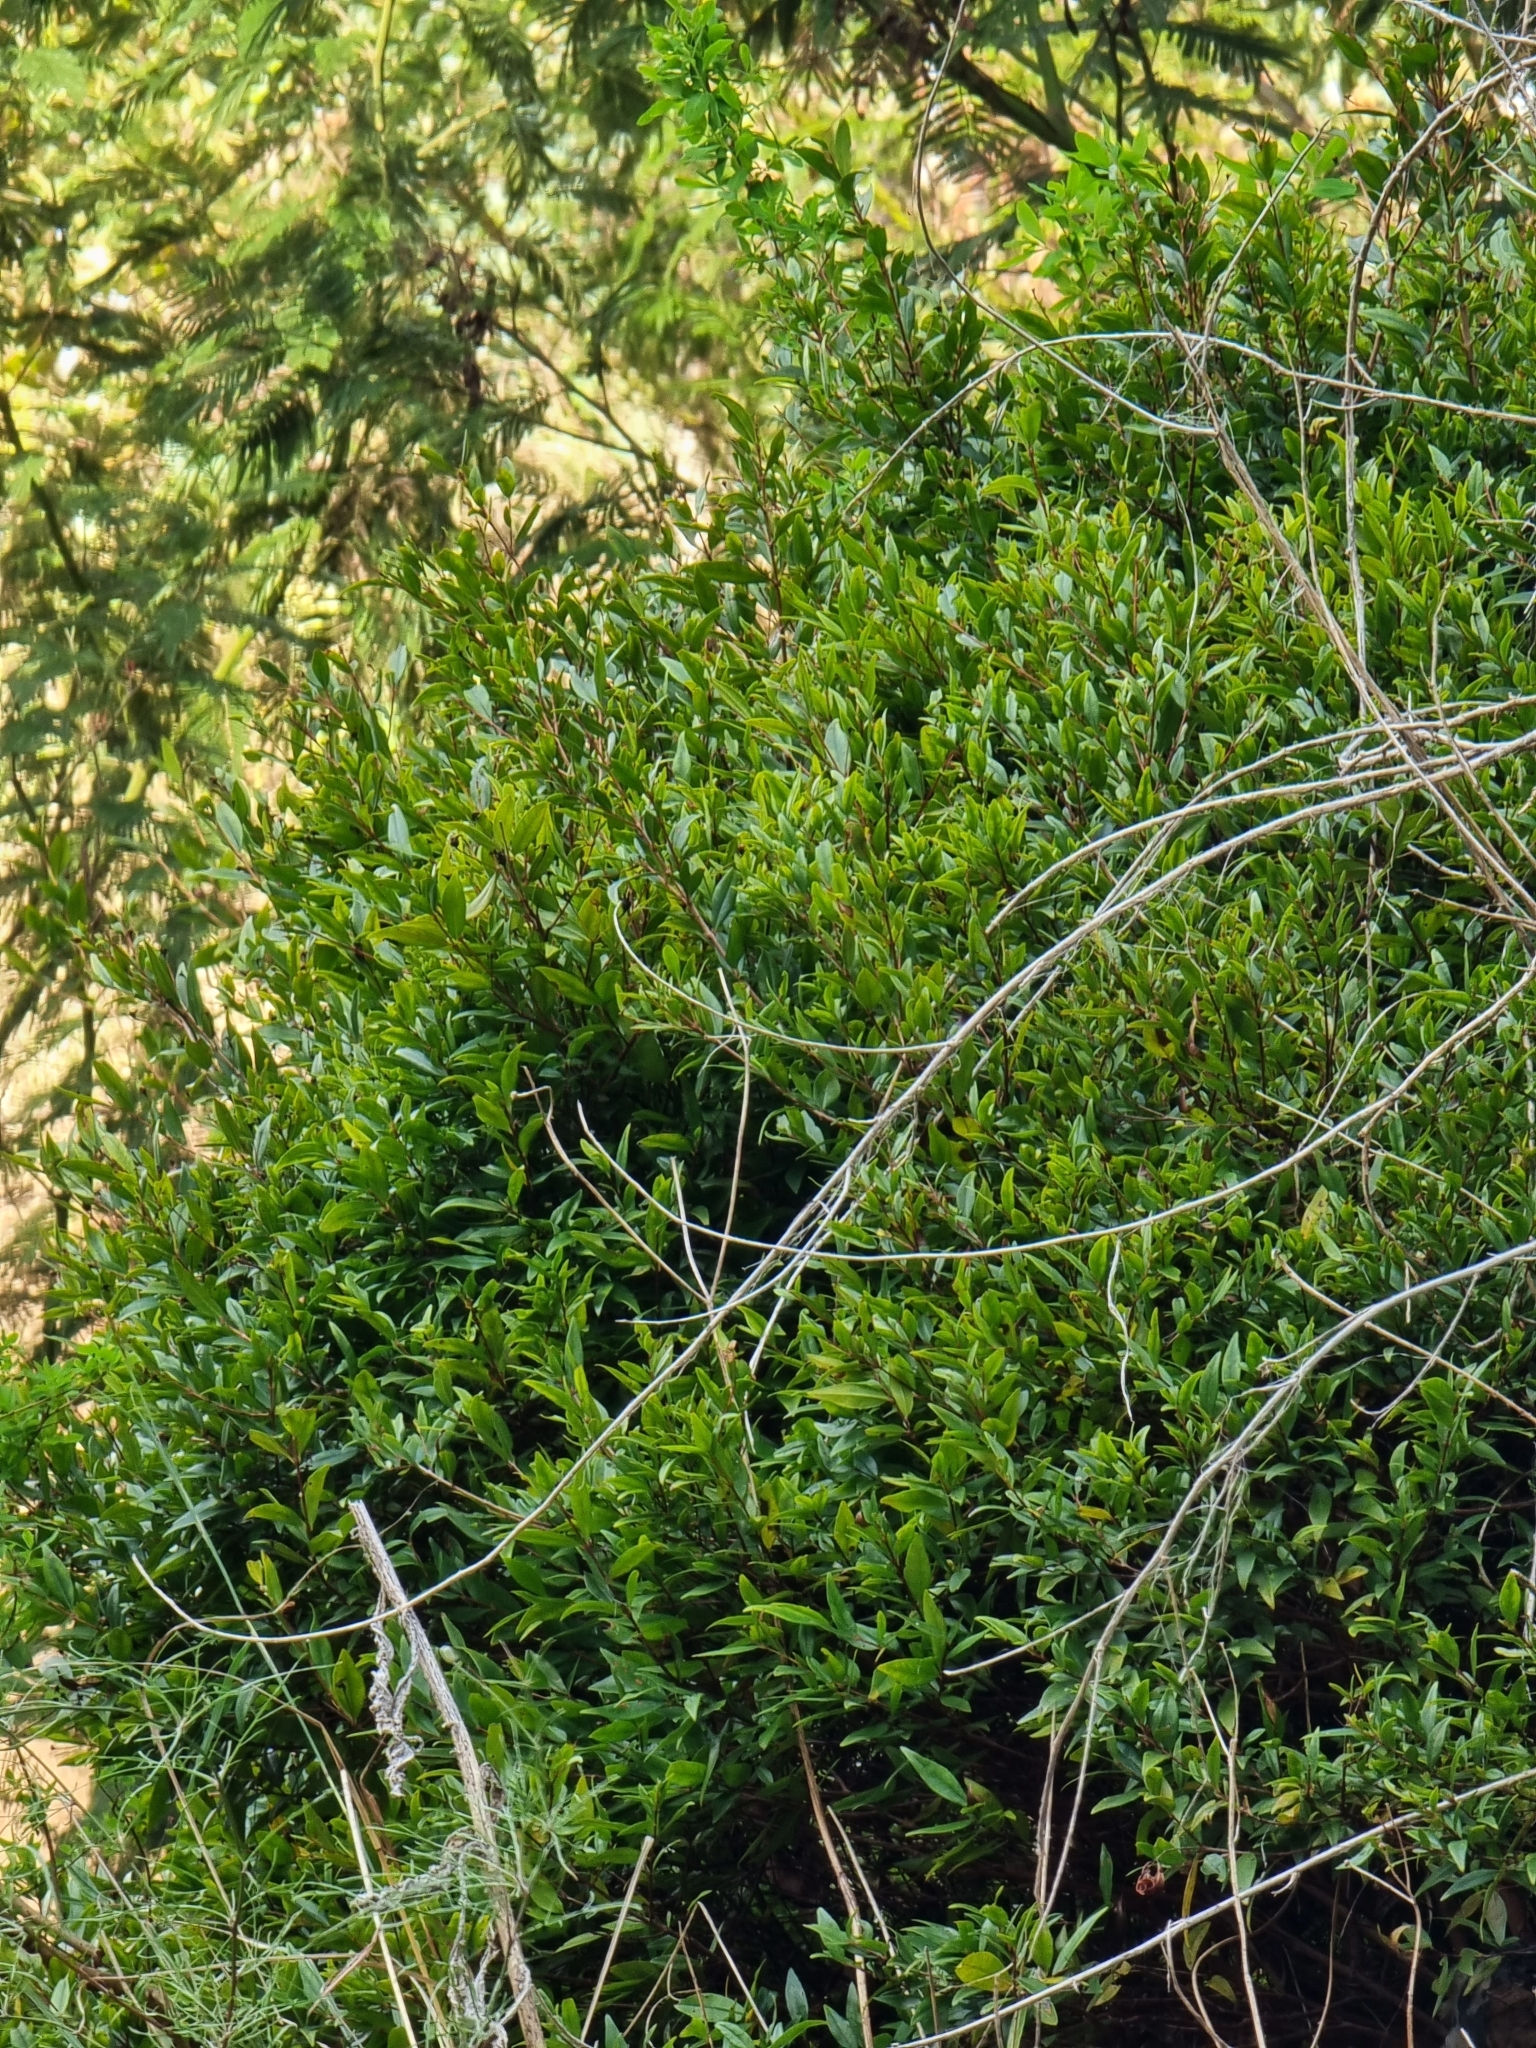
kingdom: Plantae
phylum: Tracheophyta
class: Magnoliopsida
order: Myrtales
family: Myrtaceae
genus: Myrtus
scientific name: Myrtus communis
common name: Myrtle
